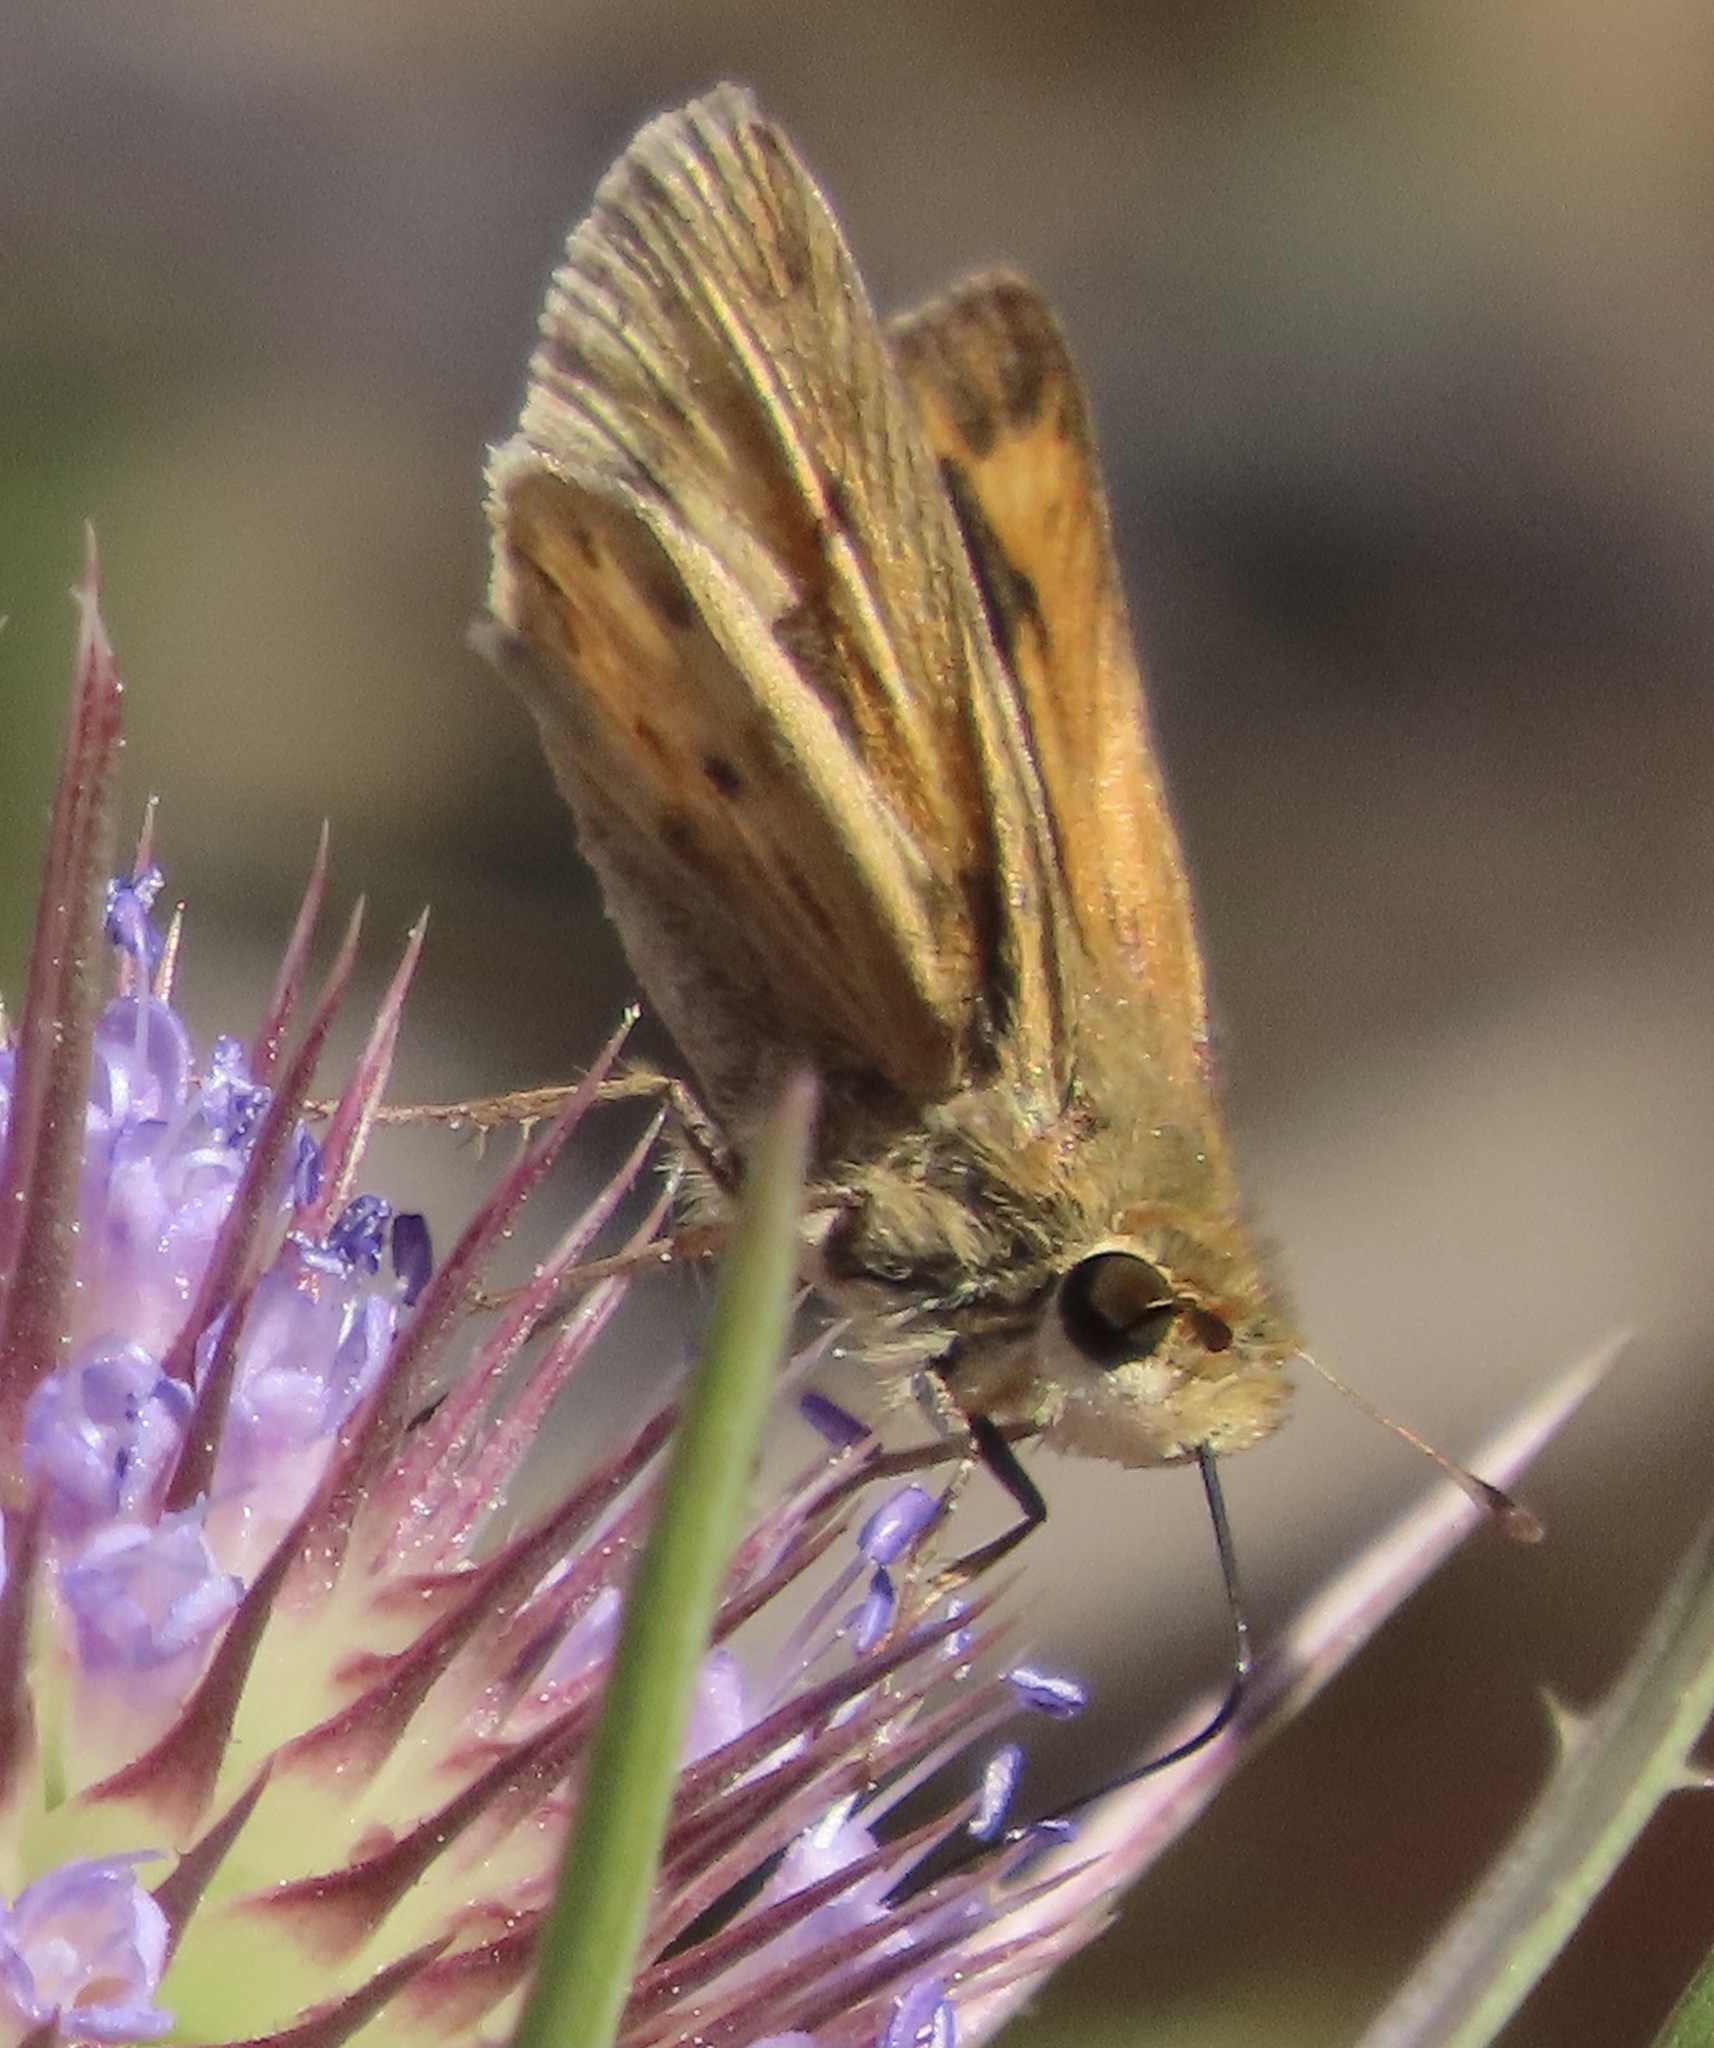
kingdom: Animalia
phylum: Arthropoda
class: Insecta
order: Lepidoptera
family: Hesperiidae
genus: Hylephila
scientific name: Hylephila phyleus
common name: Fiery skipper
